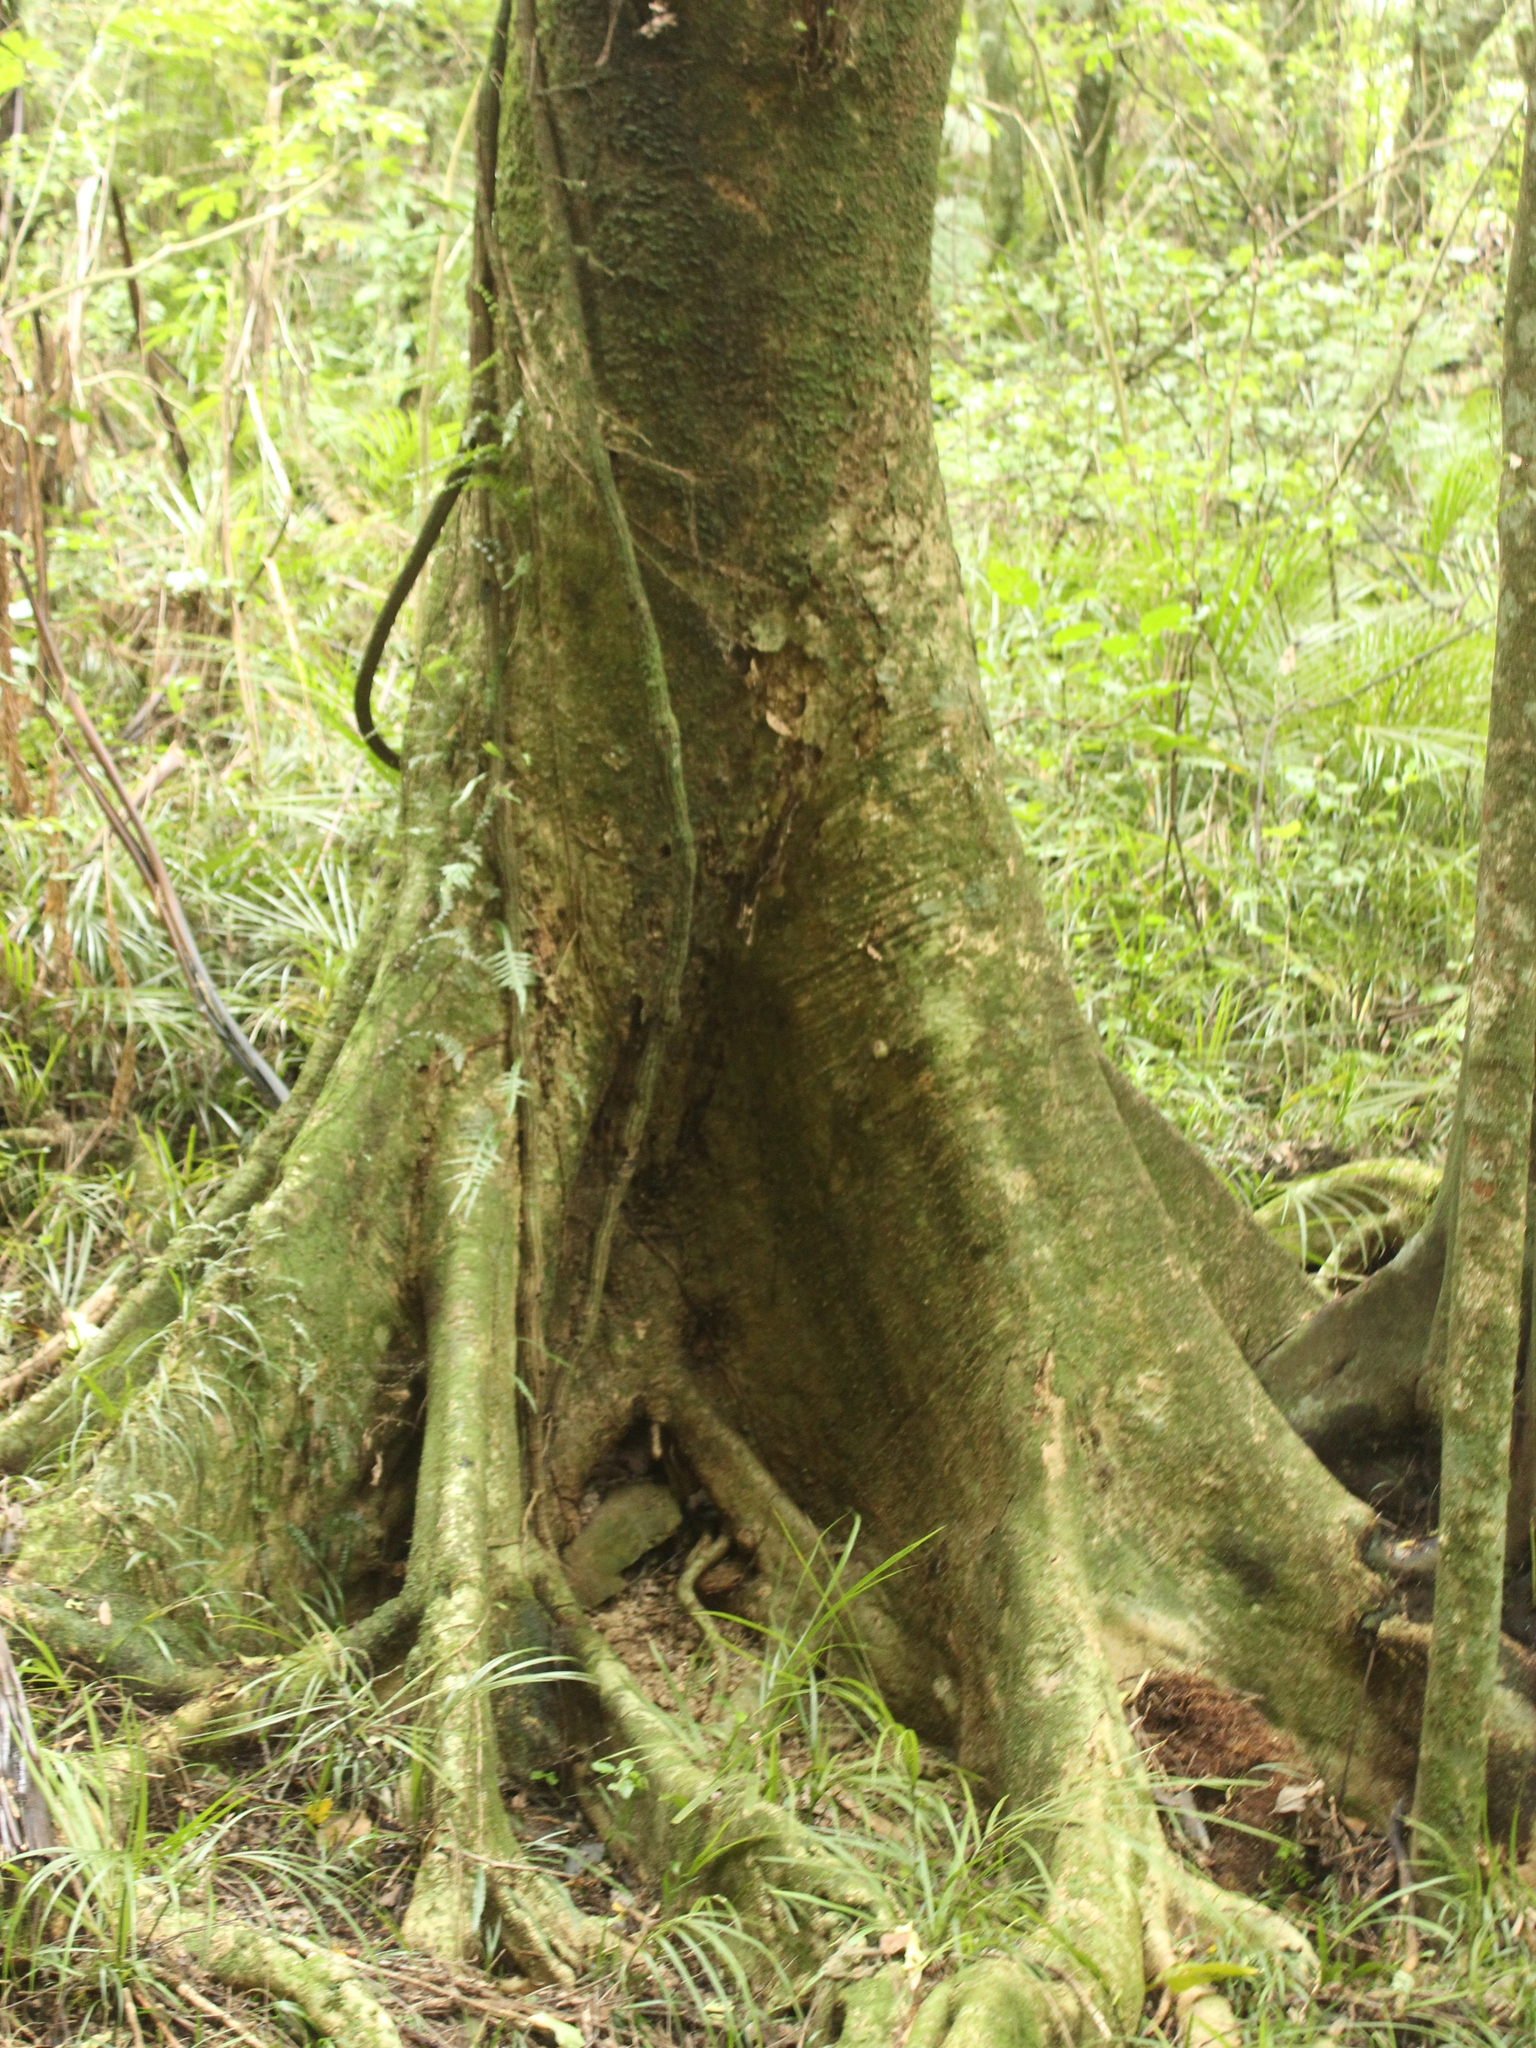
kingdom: Plantae
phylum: Tracheophyta
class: Magnoliopsida
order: Laurales
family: Atherospermataceae
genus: Laurelia
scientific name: Laurelia novae-zelandiae
